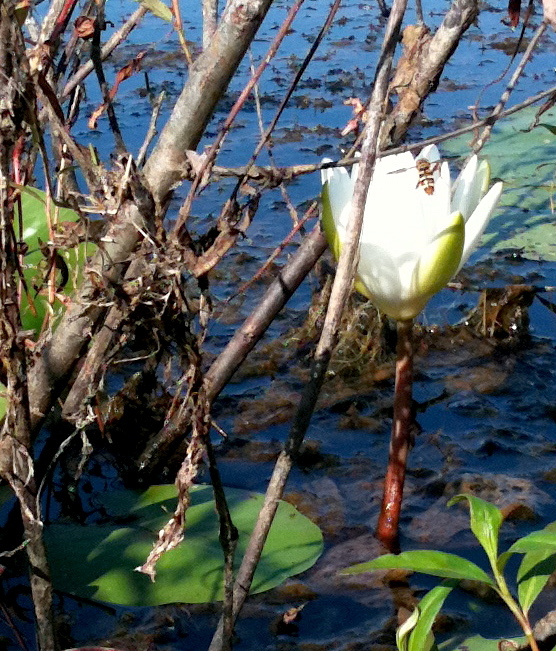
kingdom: Plantae
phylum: Tracheophyta
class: Magnoliopsida
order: Nymphaeales
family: Nymphaeaceae
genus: Nymphaea
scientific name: Nymphaea odorata
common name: Fragrant water-lily
